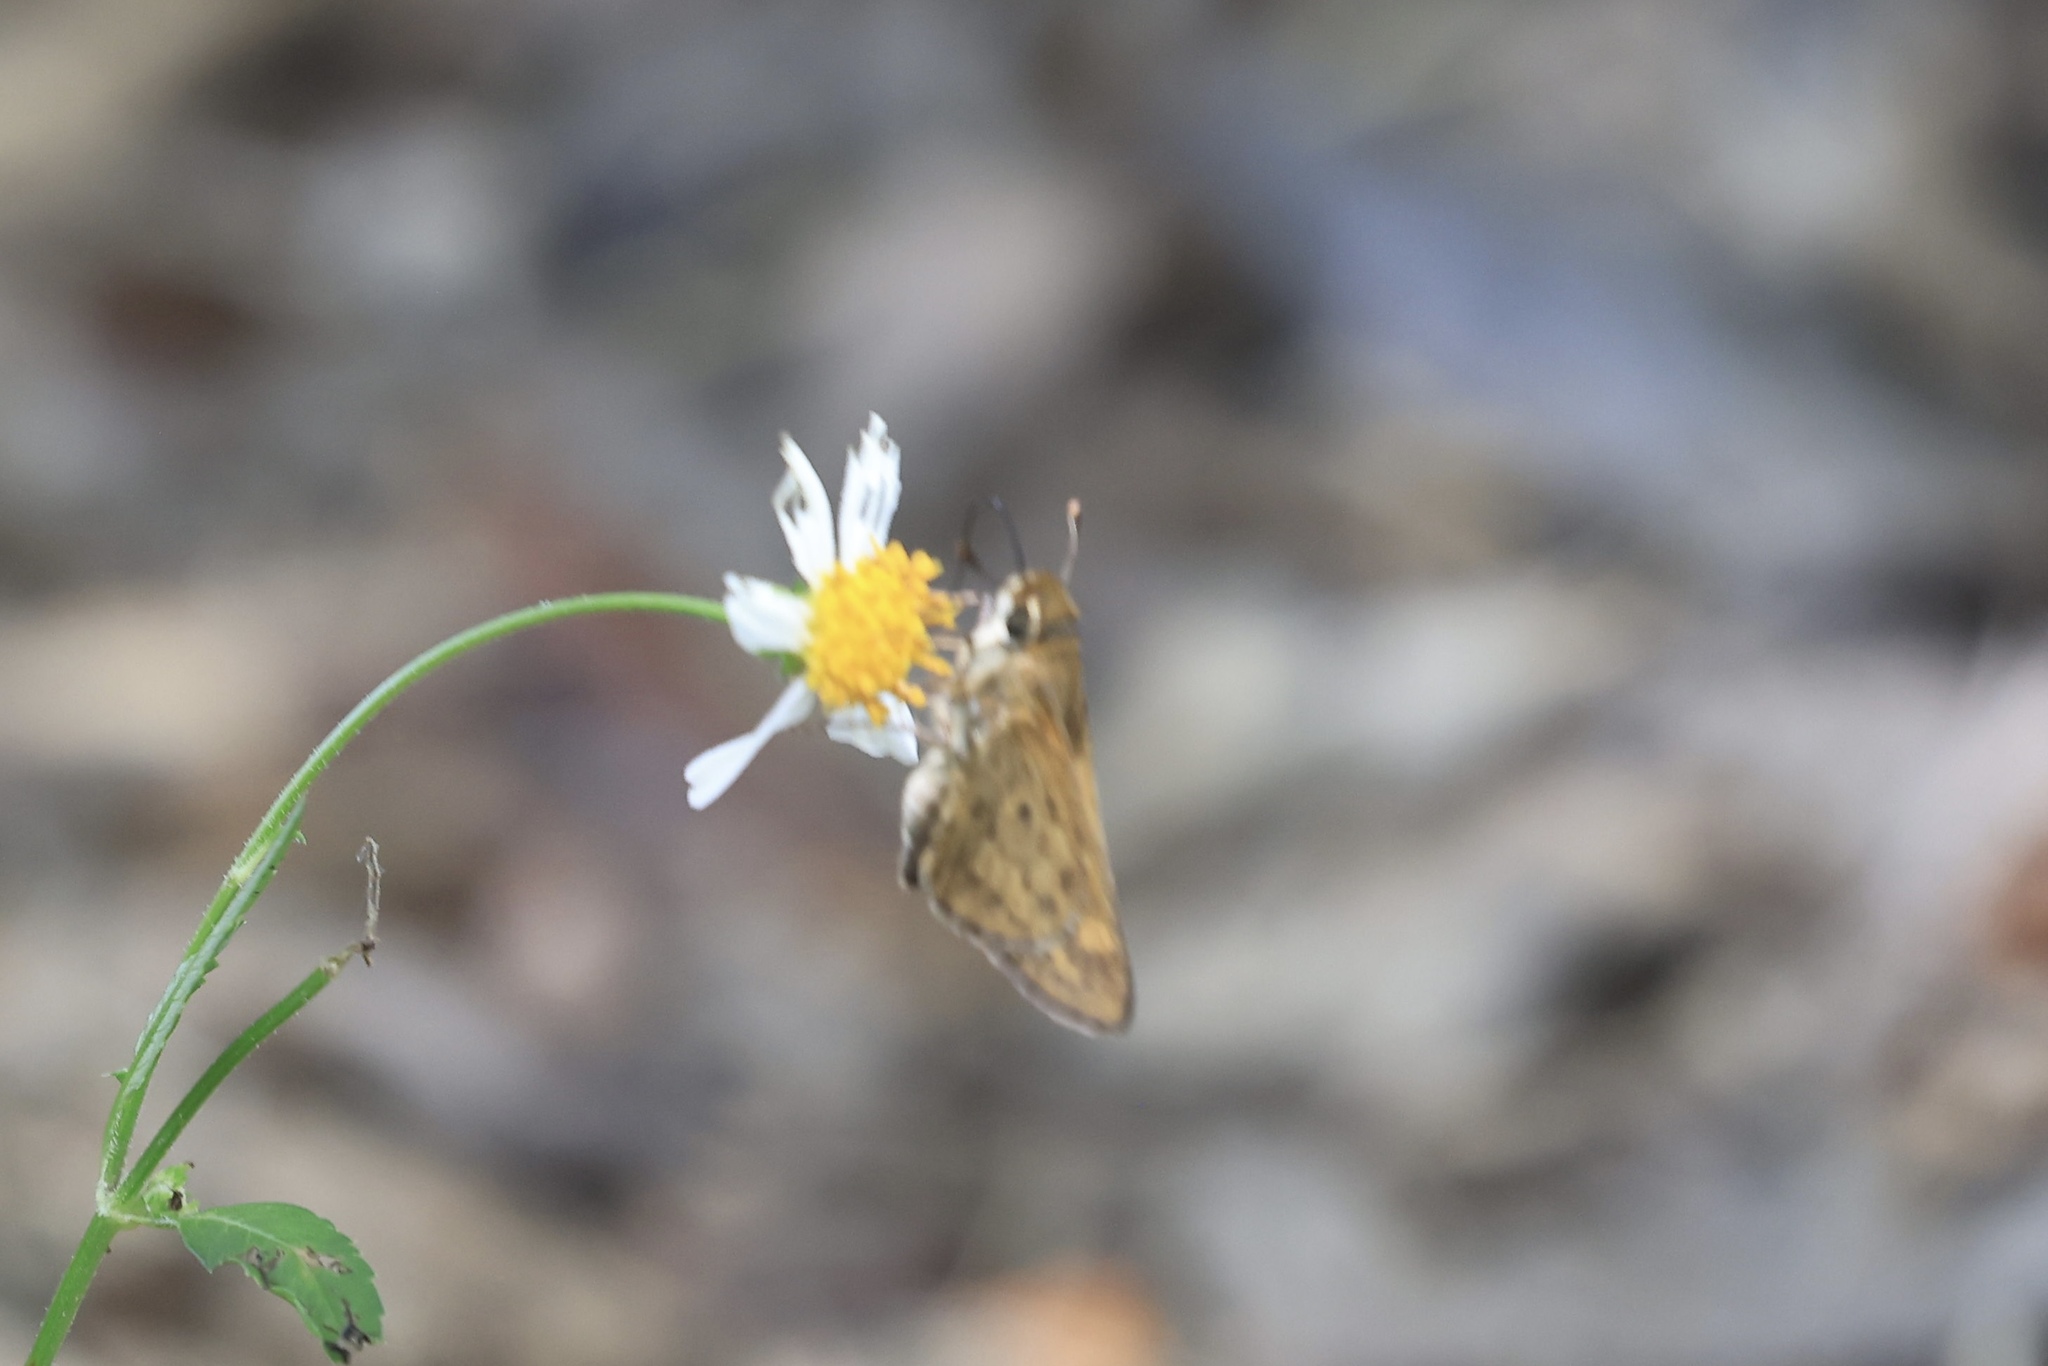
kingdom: Animalia
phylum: Arthropoda
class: Insecta
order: Lepidoptera
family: Hesperiidae
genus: Hylephila
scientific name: Hylephila phyleus
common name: Fiery skipper
